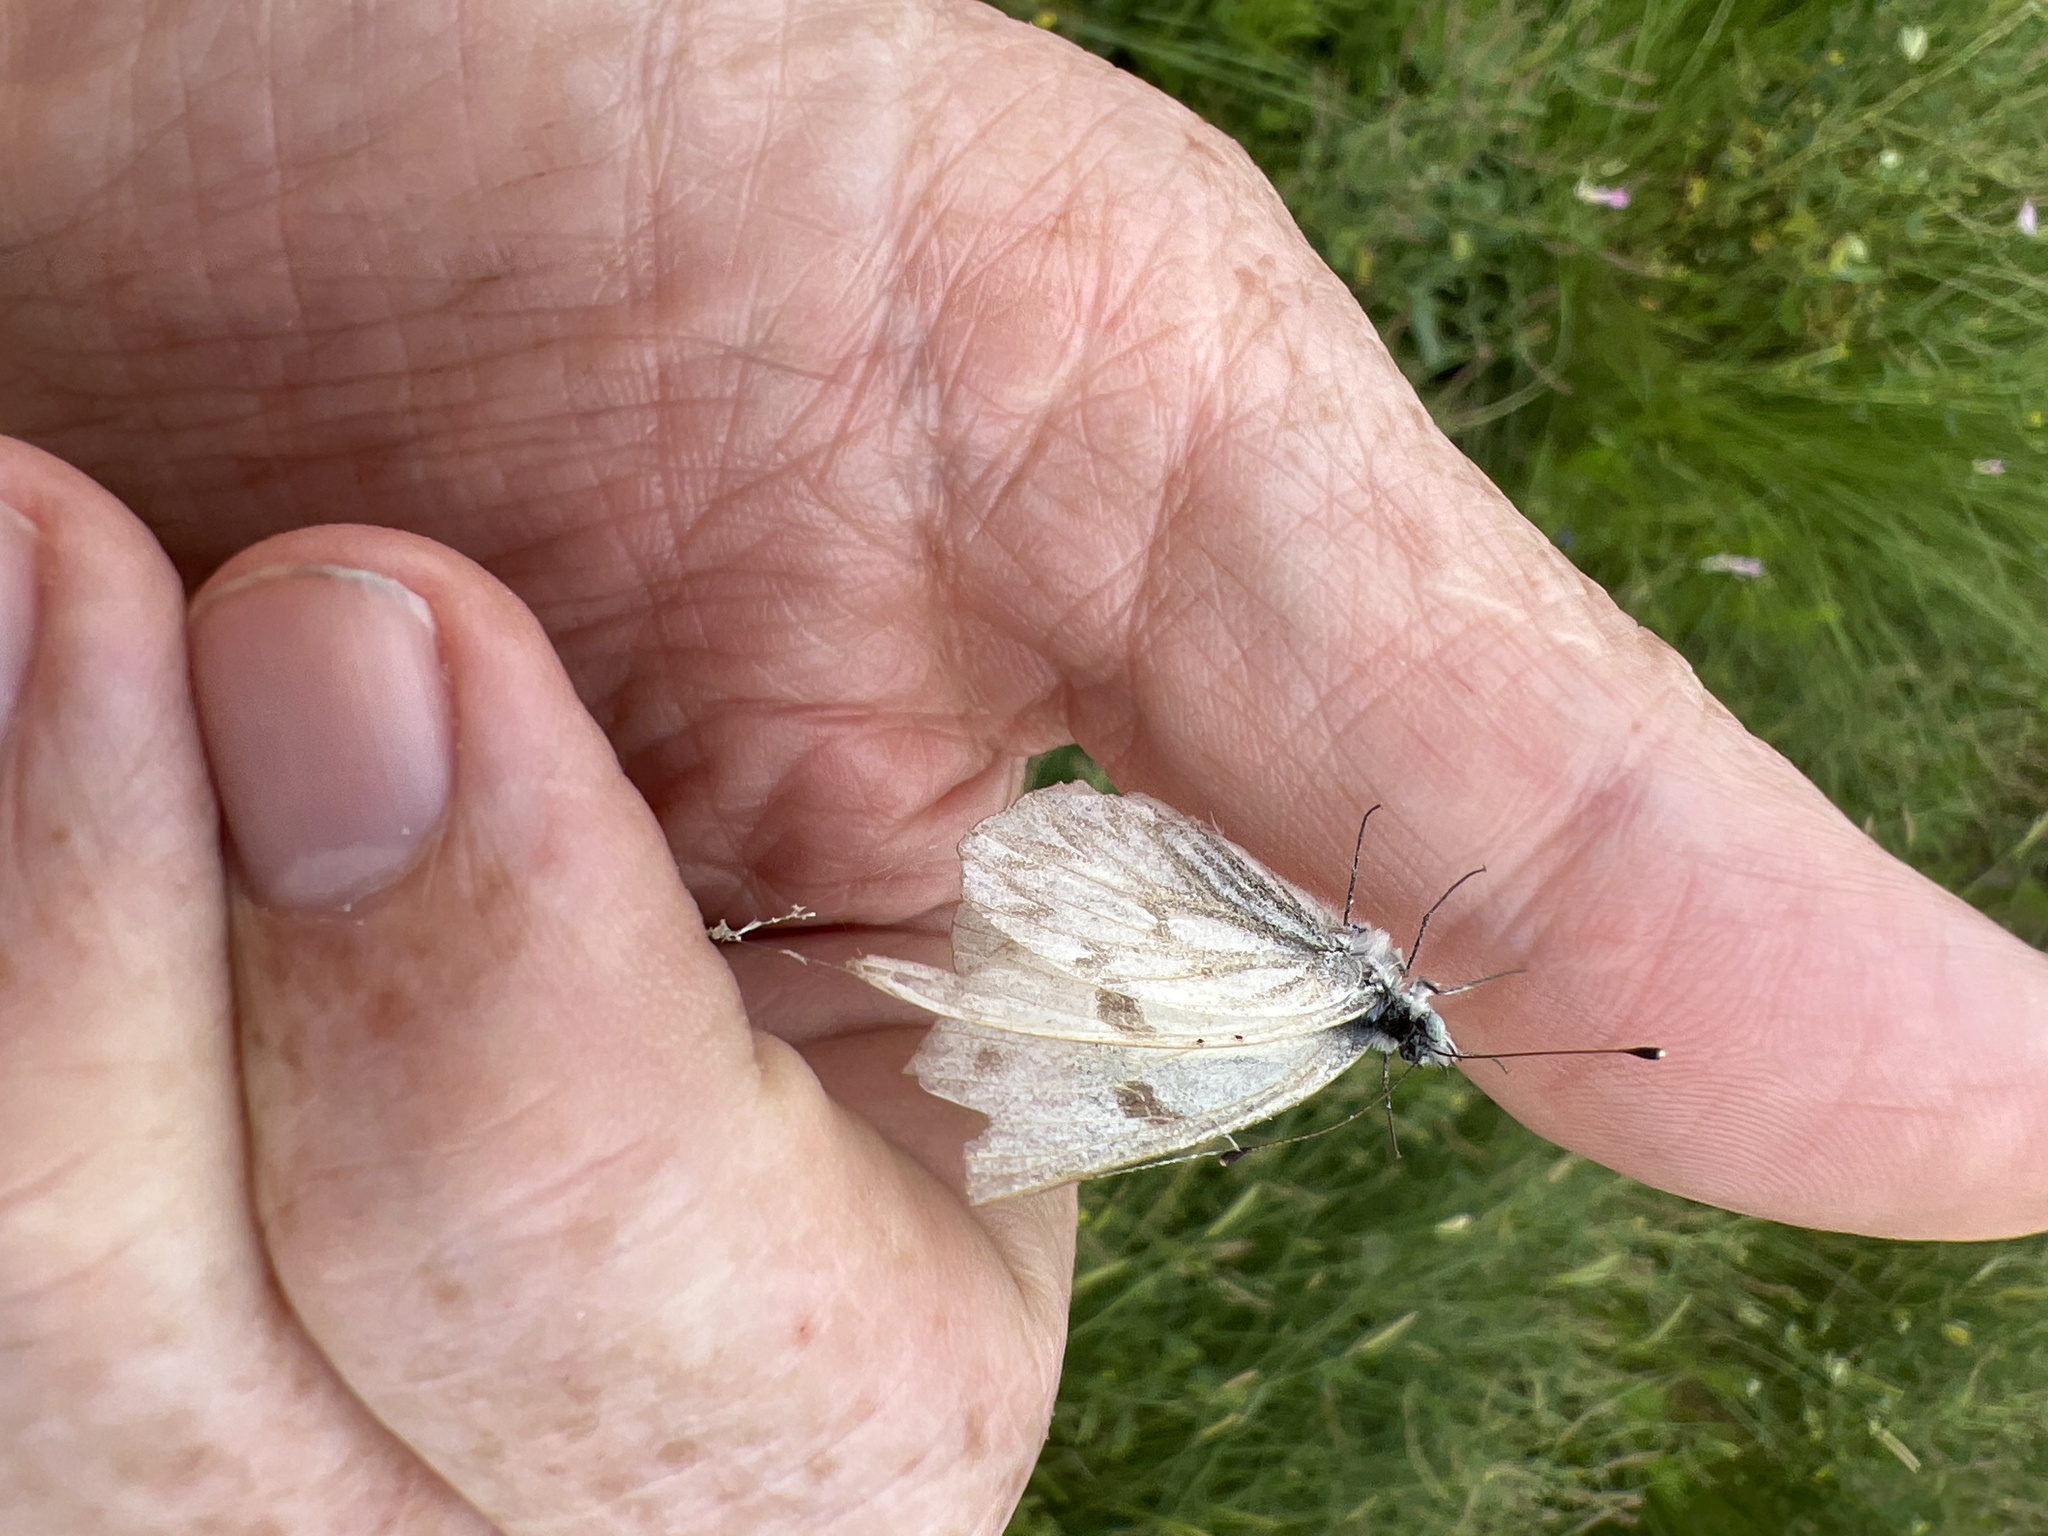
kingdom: Animalia
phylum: Arthropoda
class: Insecta
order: Lepidoptera
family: Pieridae
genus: Pontia
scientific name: Pontia protodice
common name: Checkered white
